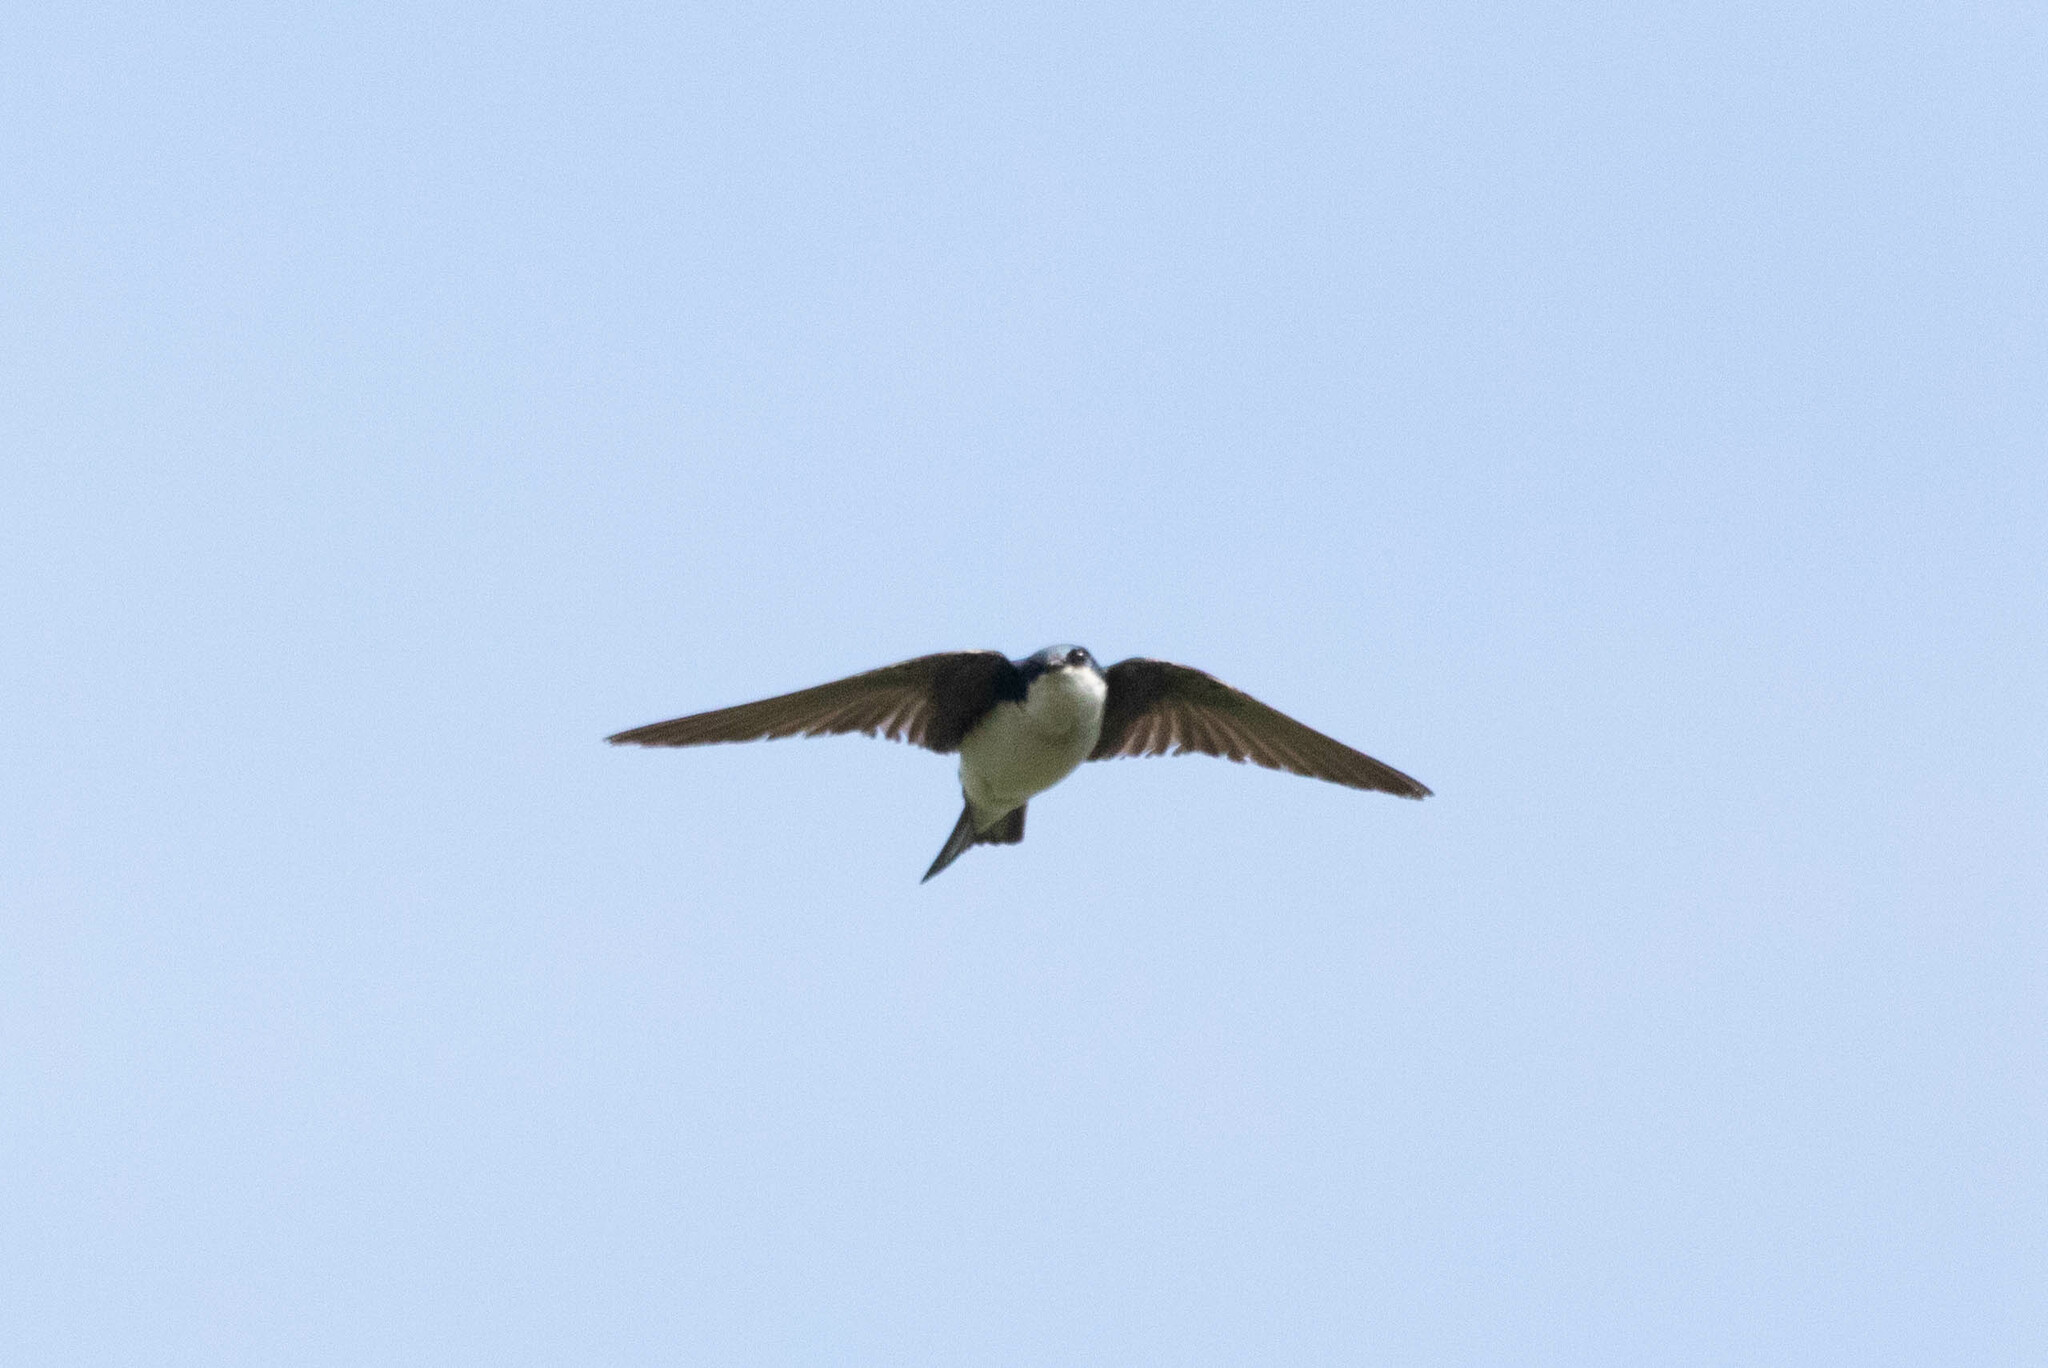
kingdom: Animalia
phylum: Chordata
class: Aves
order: Passeriformes
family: Hirundinidae
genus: Tachycineta
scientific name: Tachycineta bicolor
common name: Tree swallow
